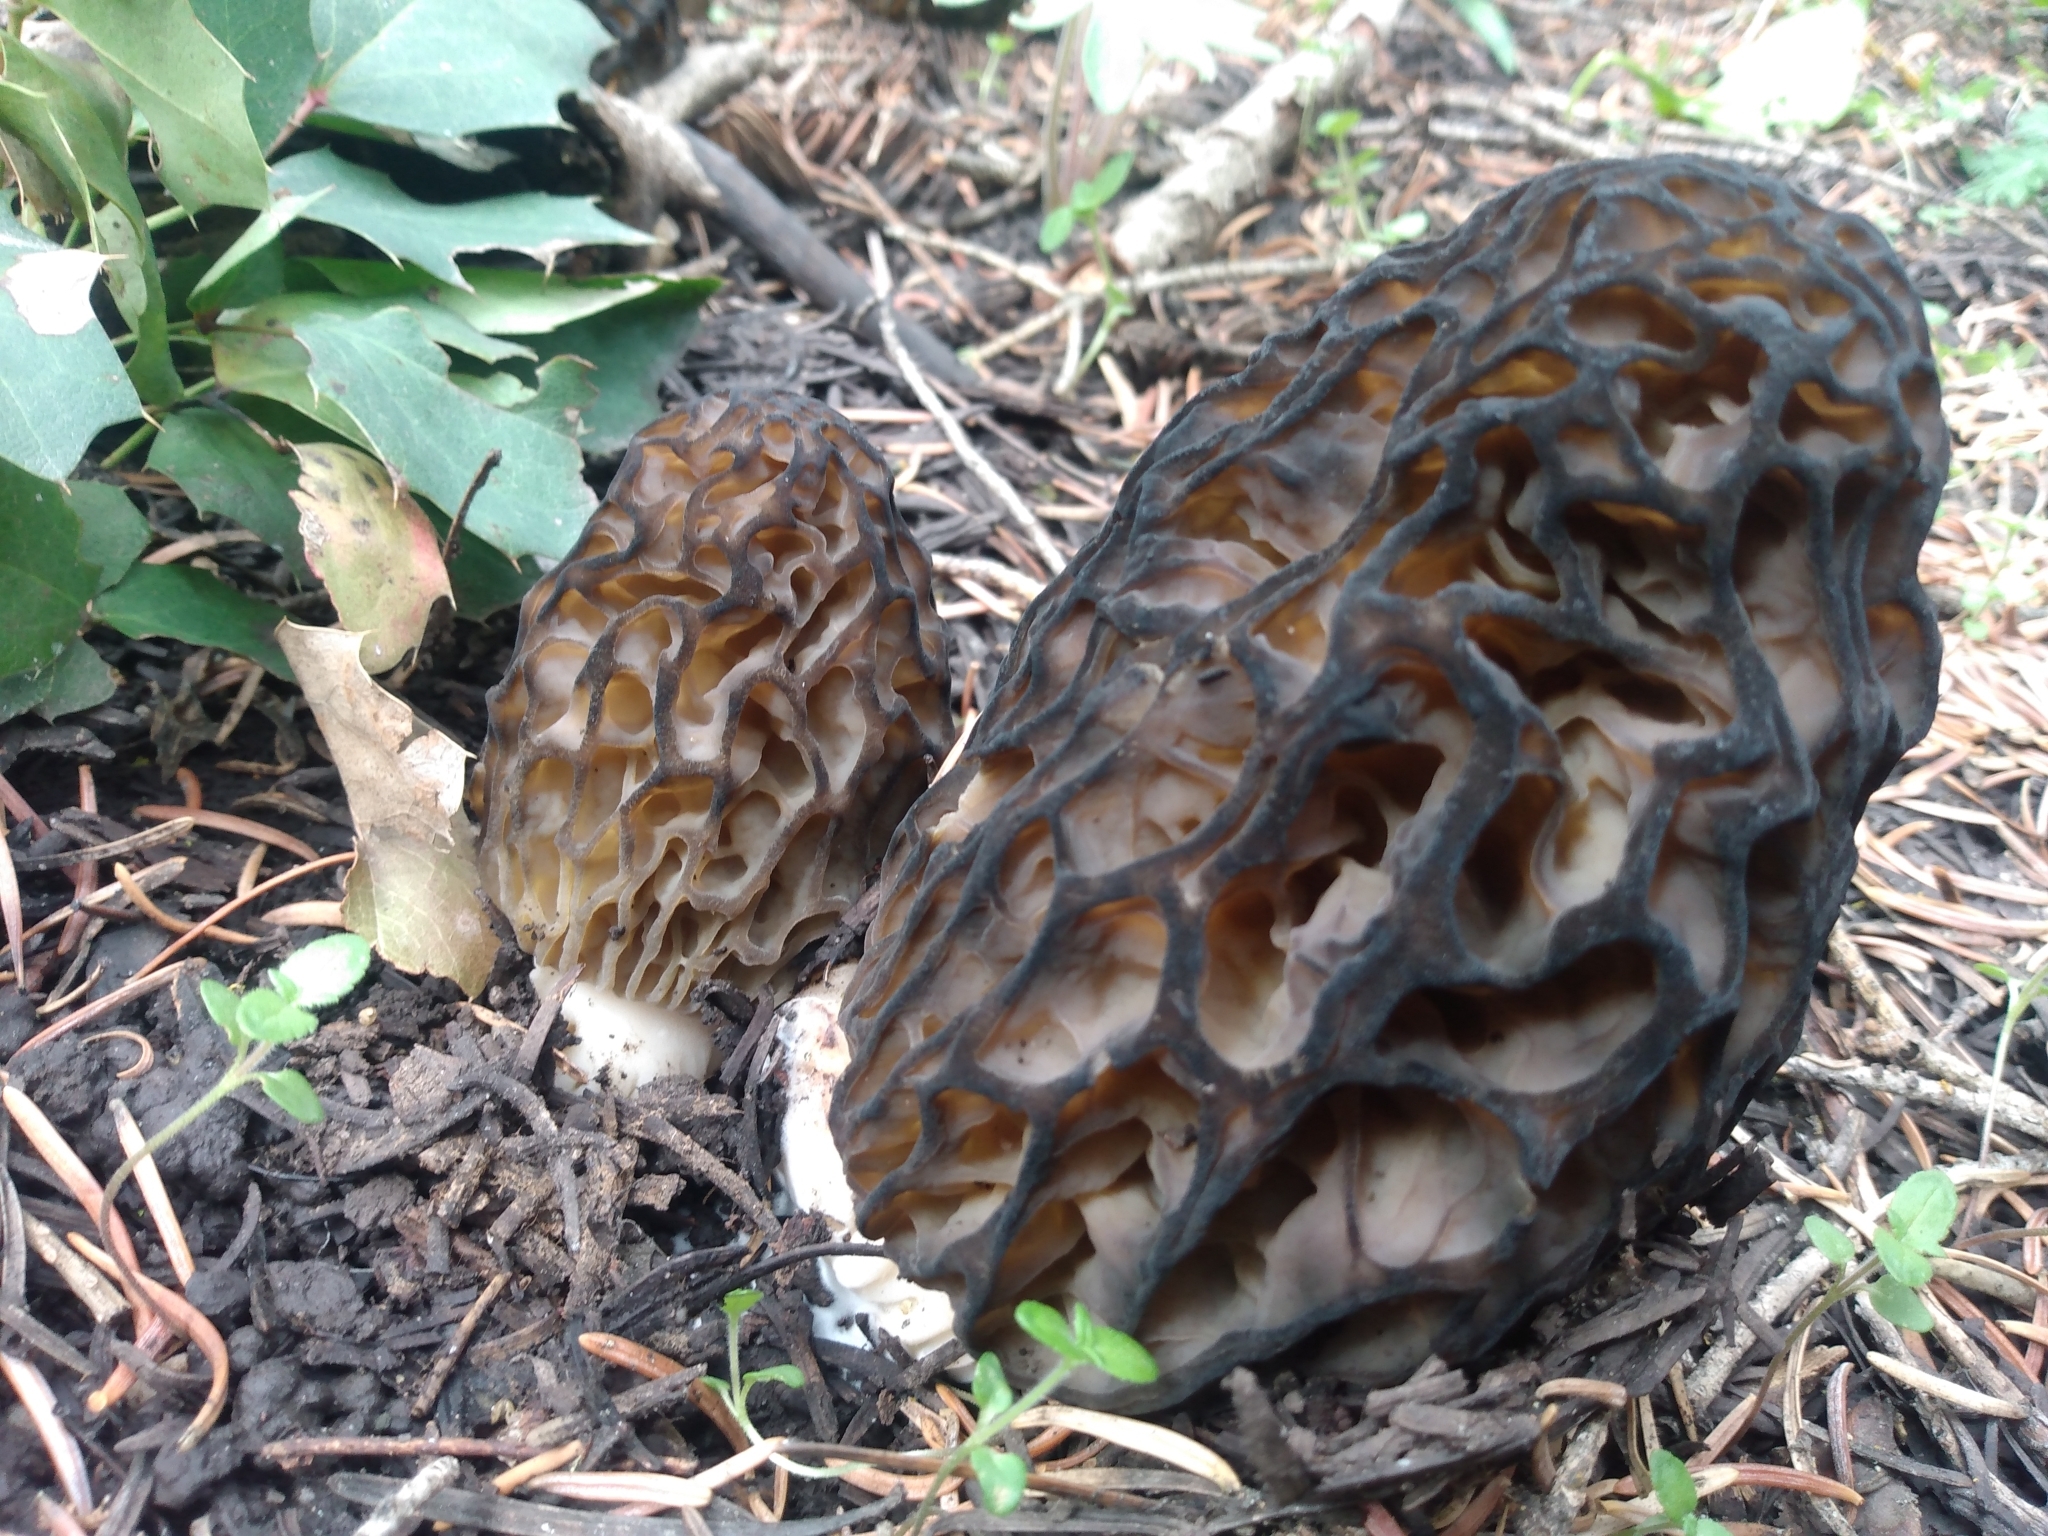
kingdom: Fungi
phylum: Ascomycota
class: Pezizomycetes
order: Pezizales
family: Morchellaceae
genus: Morchella
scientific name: Morchella snyderi
